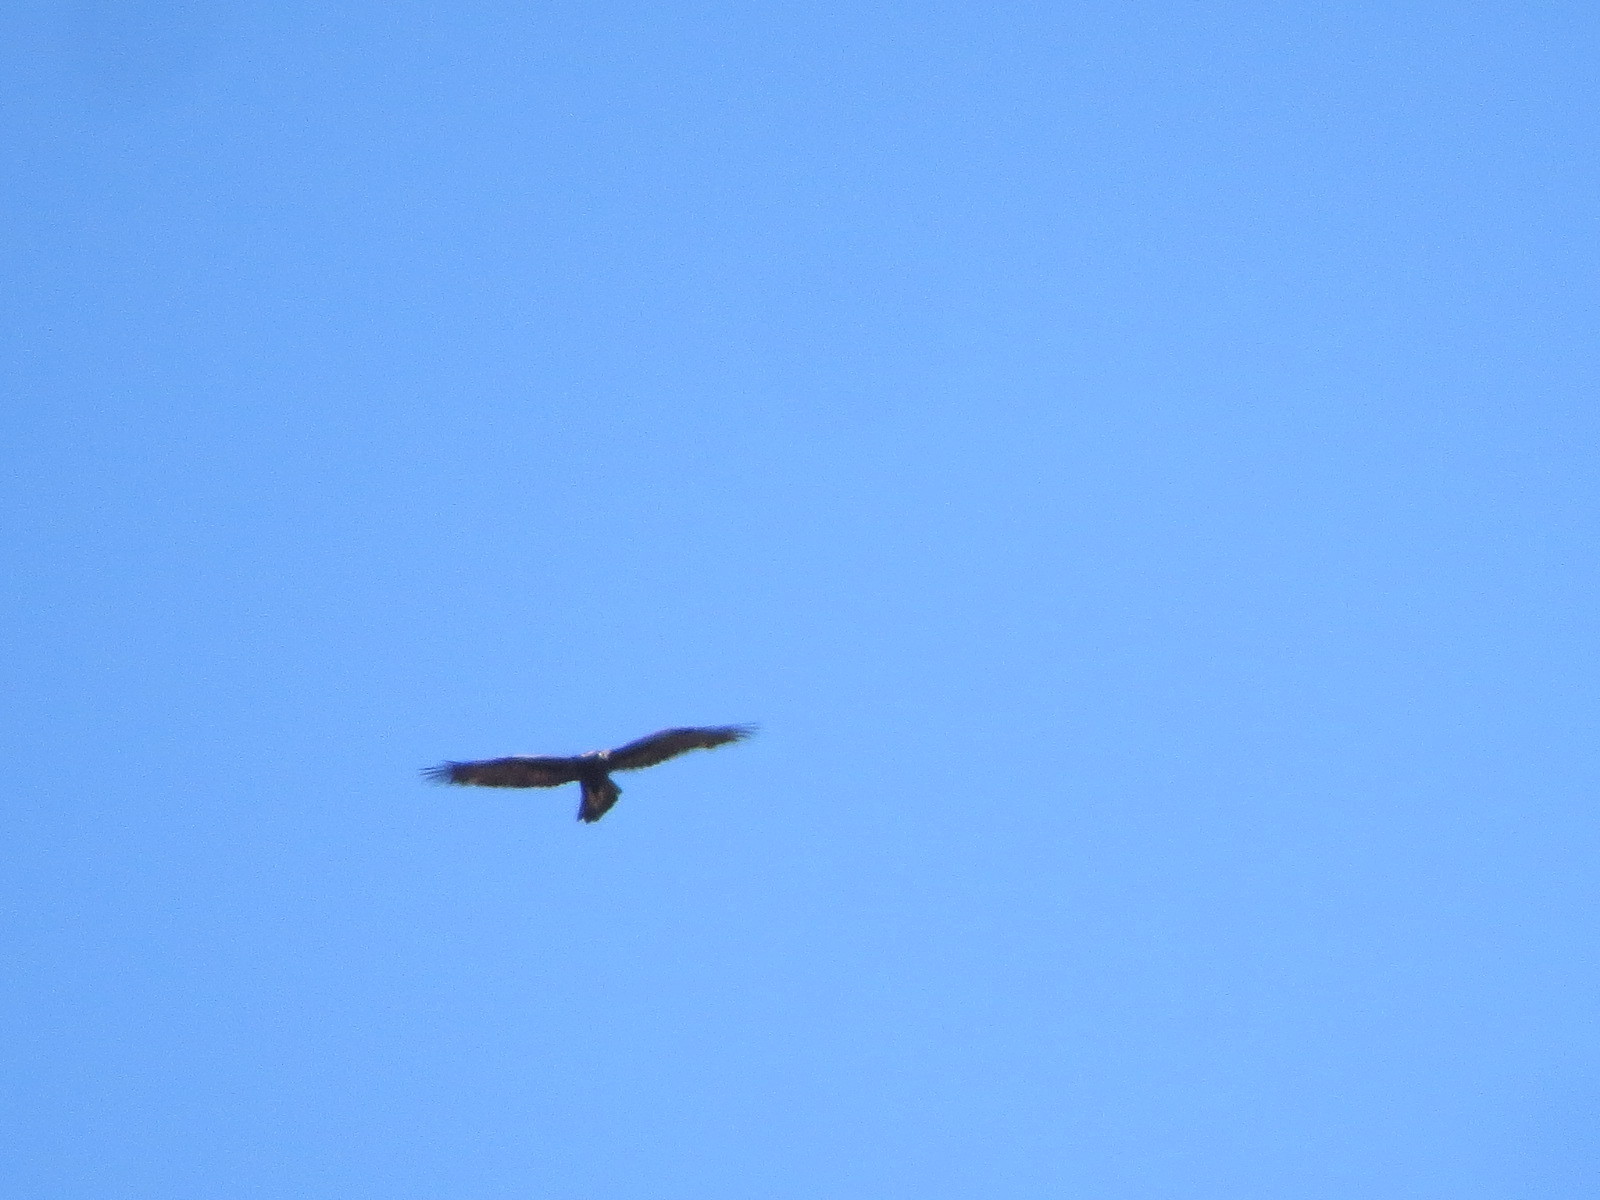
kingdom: Animalia
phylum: Chordata
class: Aves
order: Accipitriformes
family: Accipitridae
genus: Aquila
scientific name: Aquila chrysaetos
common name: Golden eagle
